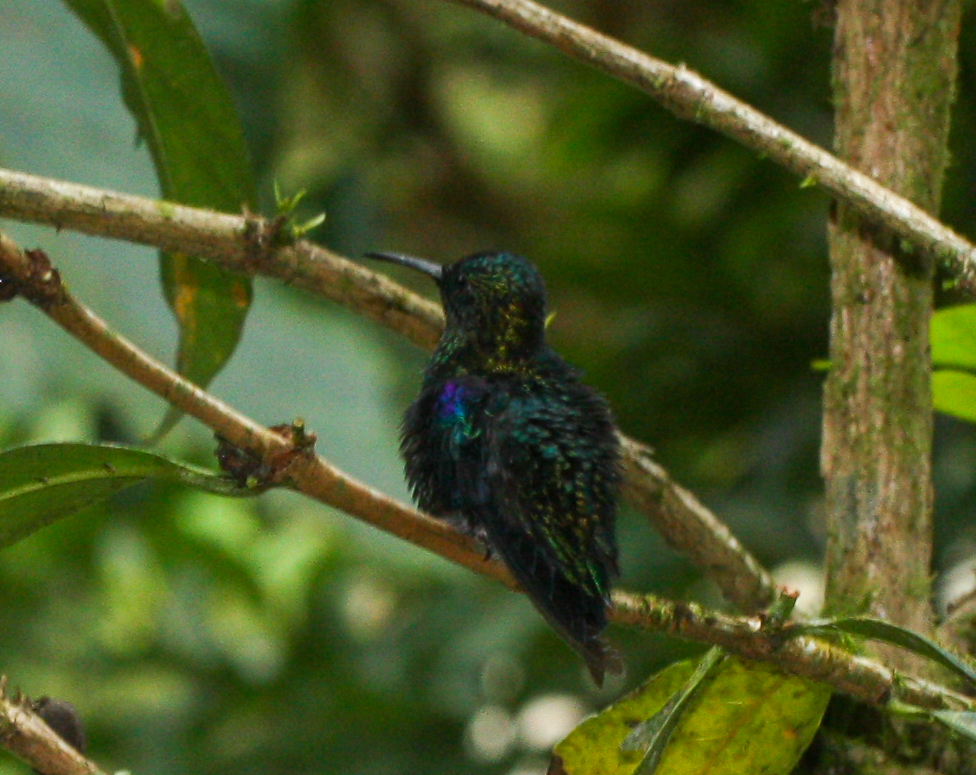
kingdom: Animalia
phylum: Chordata
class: Aves
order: Apodiformes
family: Trochilidae
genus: Thalurania
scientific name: Thalurania colombica
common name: Crowned woodnymph
